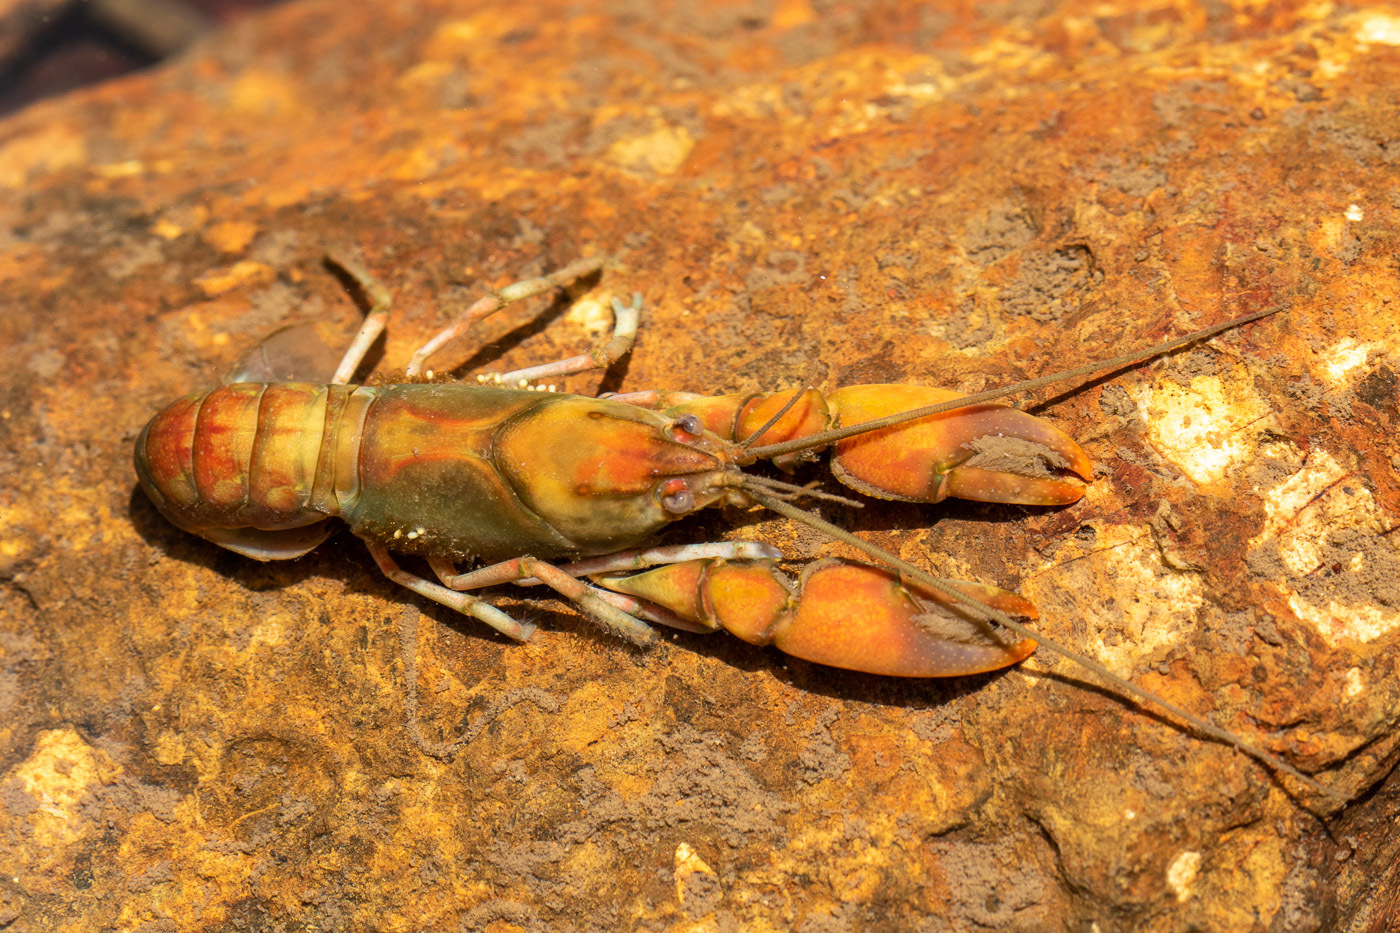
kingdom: Animalia
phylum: Arthropoda
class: Malacostraca
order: Decapoda
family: Parastacidae
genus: Cherax
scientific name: Cherax depressus
